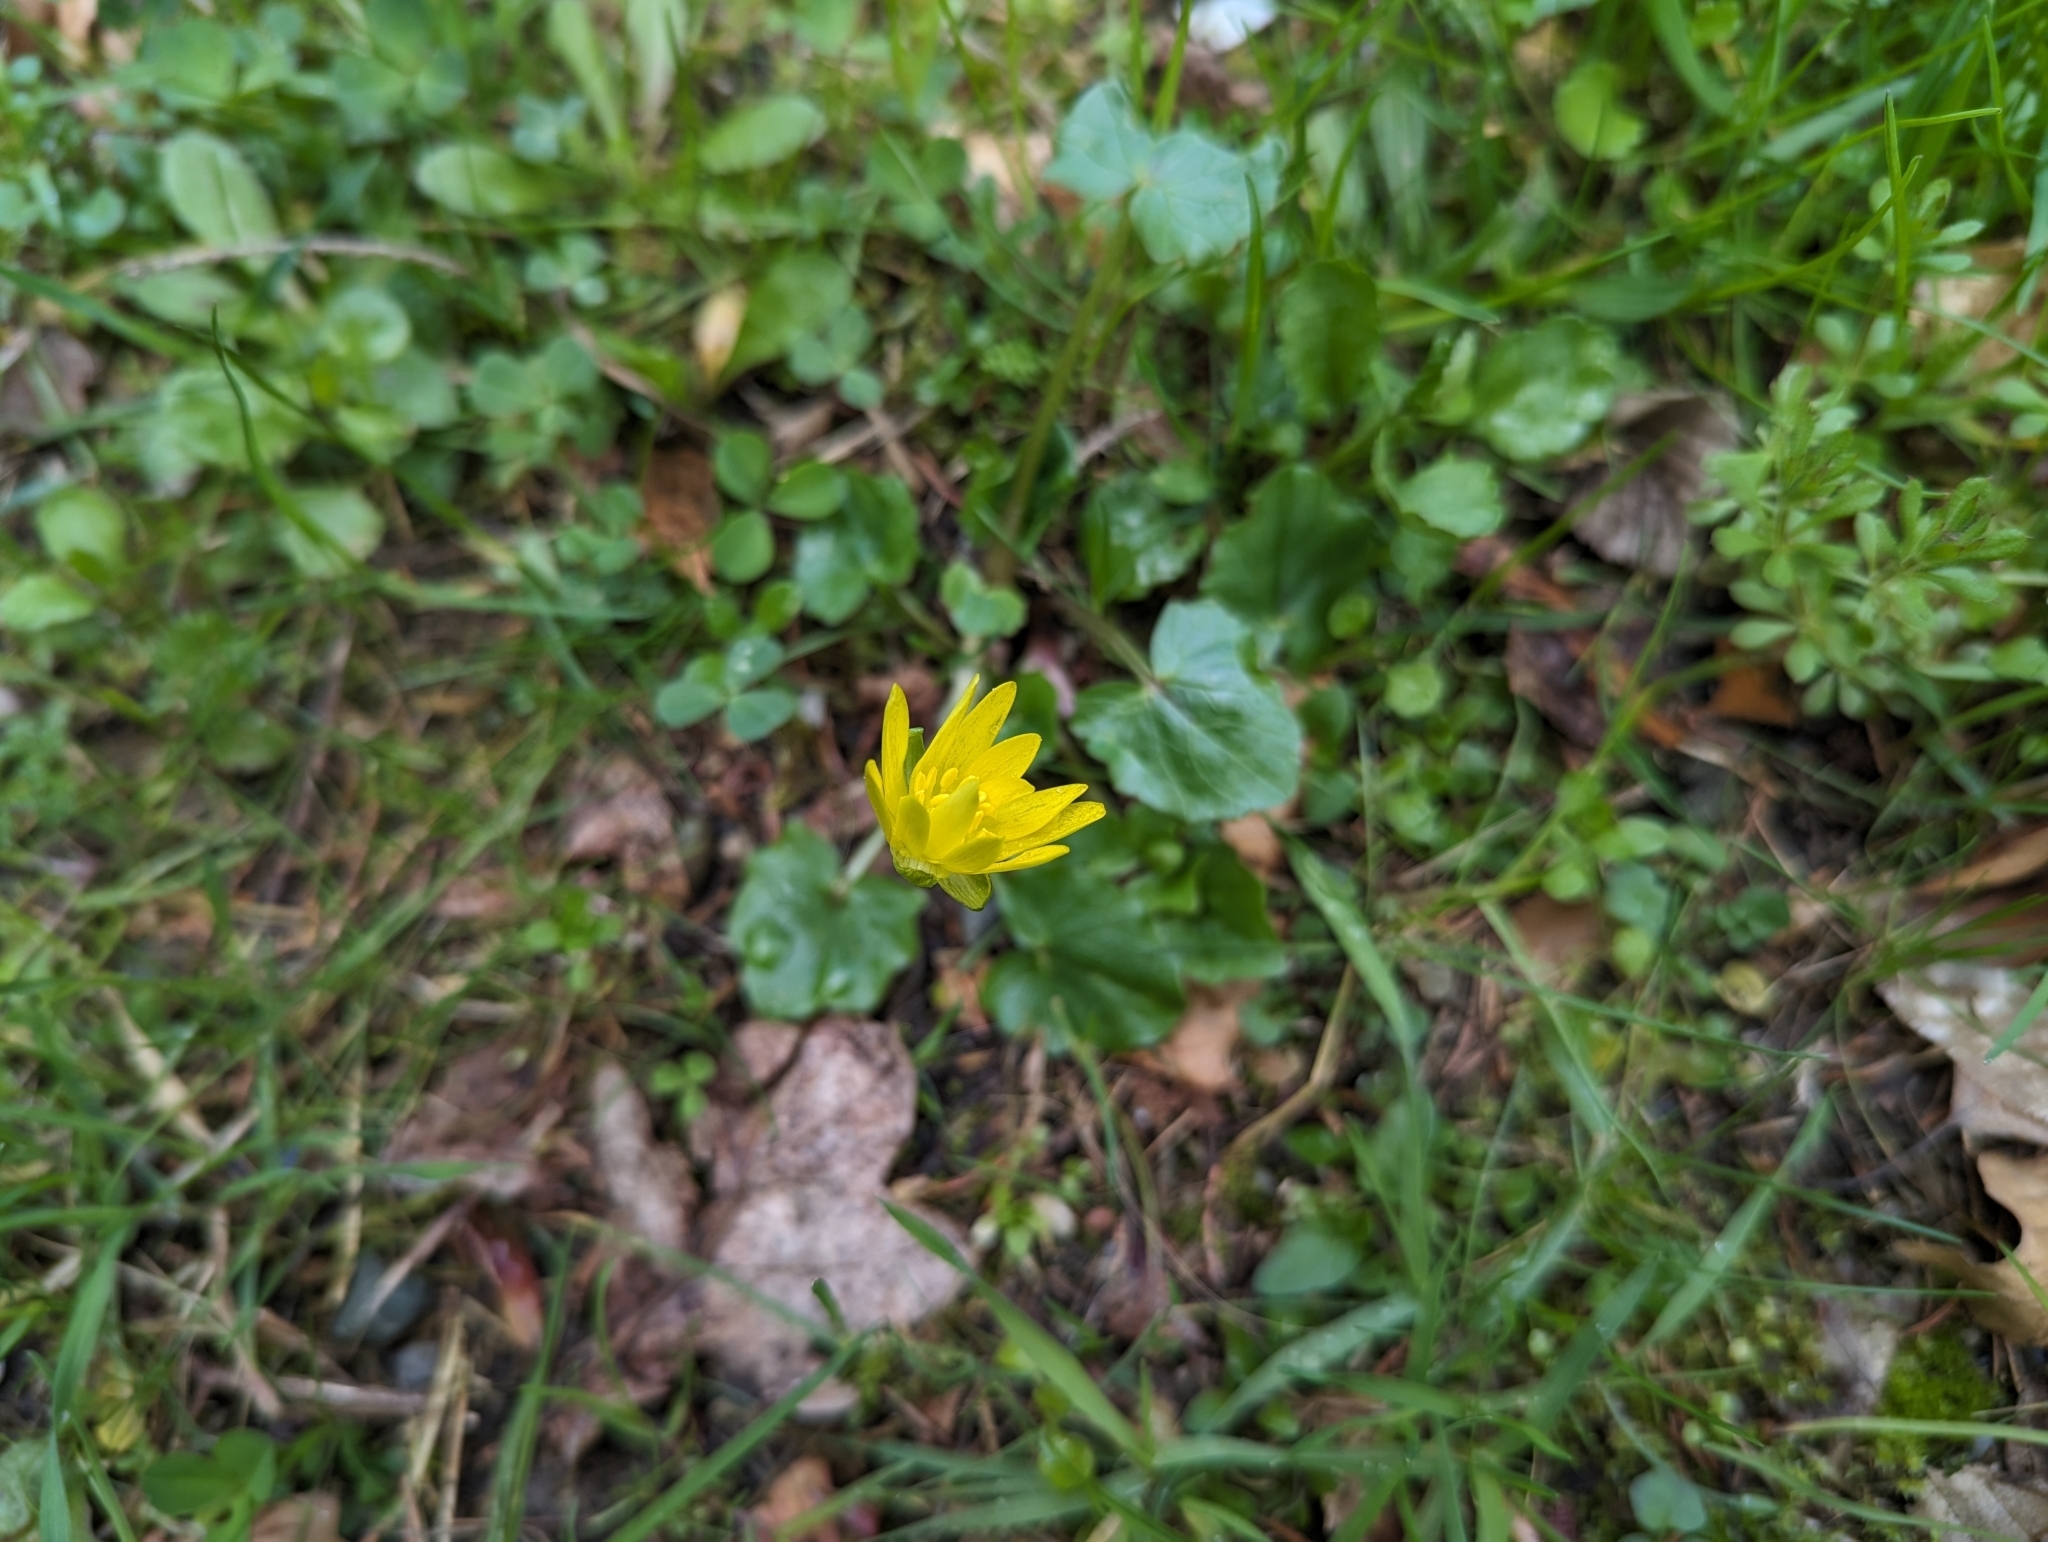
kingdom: Plantae
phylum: Tracheophyta
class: Magnoliopsida
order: Ranunculales
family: Ranunculaceae
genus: Ficaria
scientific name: Ficaria verna
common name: Lesser celandine
